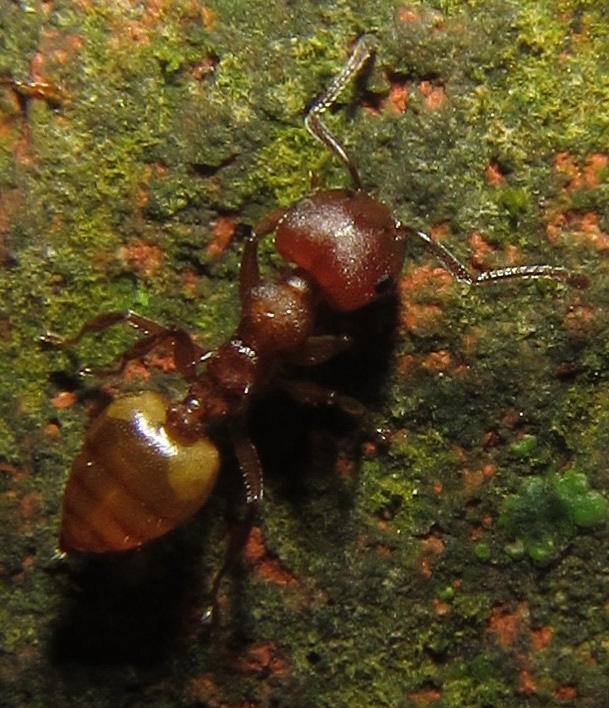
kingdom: Animalia
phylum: Arthropoda
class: Insecta
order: Hymenoptera
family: Formicidae
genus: Crematogaster
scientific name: Crematogaster castanea
